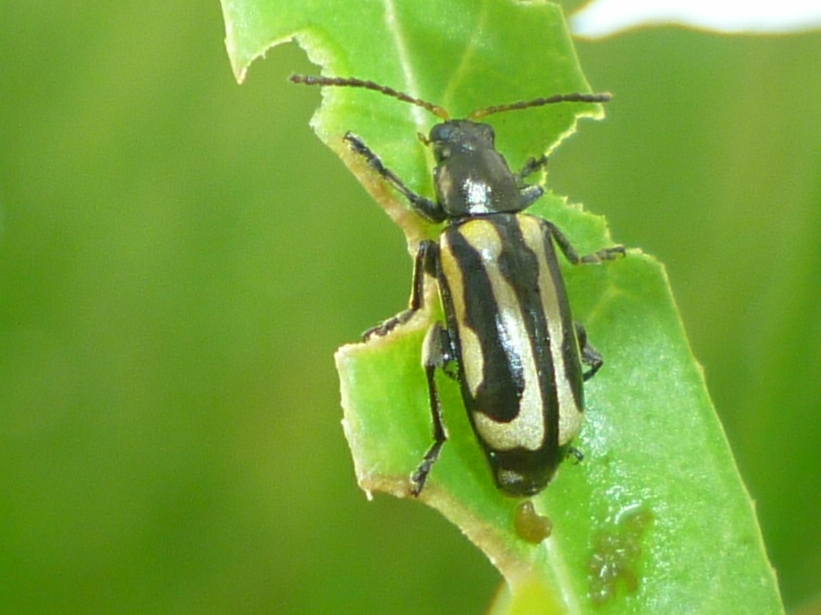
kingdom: Animalia
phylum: Arthropoda
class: Insecta
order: Coleoptera
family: Chrysomelidae
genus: Agasicles
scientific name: Agasicles hygrophila
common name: Alligatorweed flea beetle
